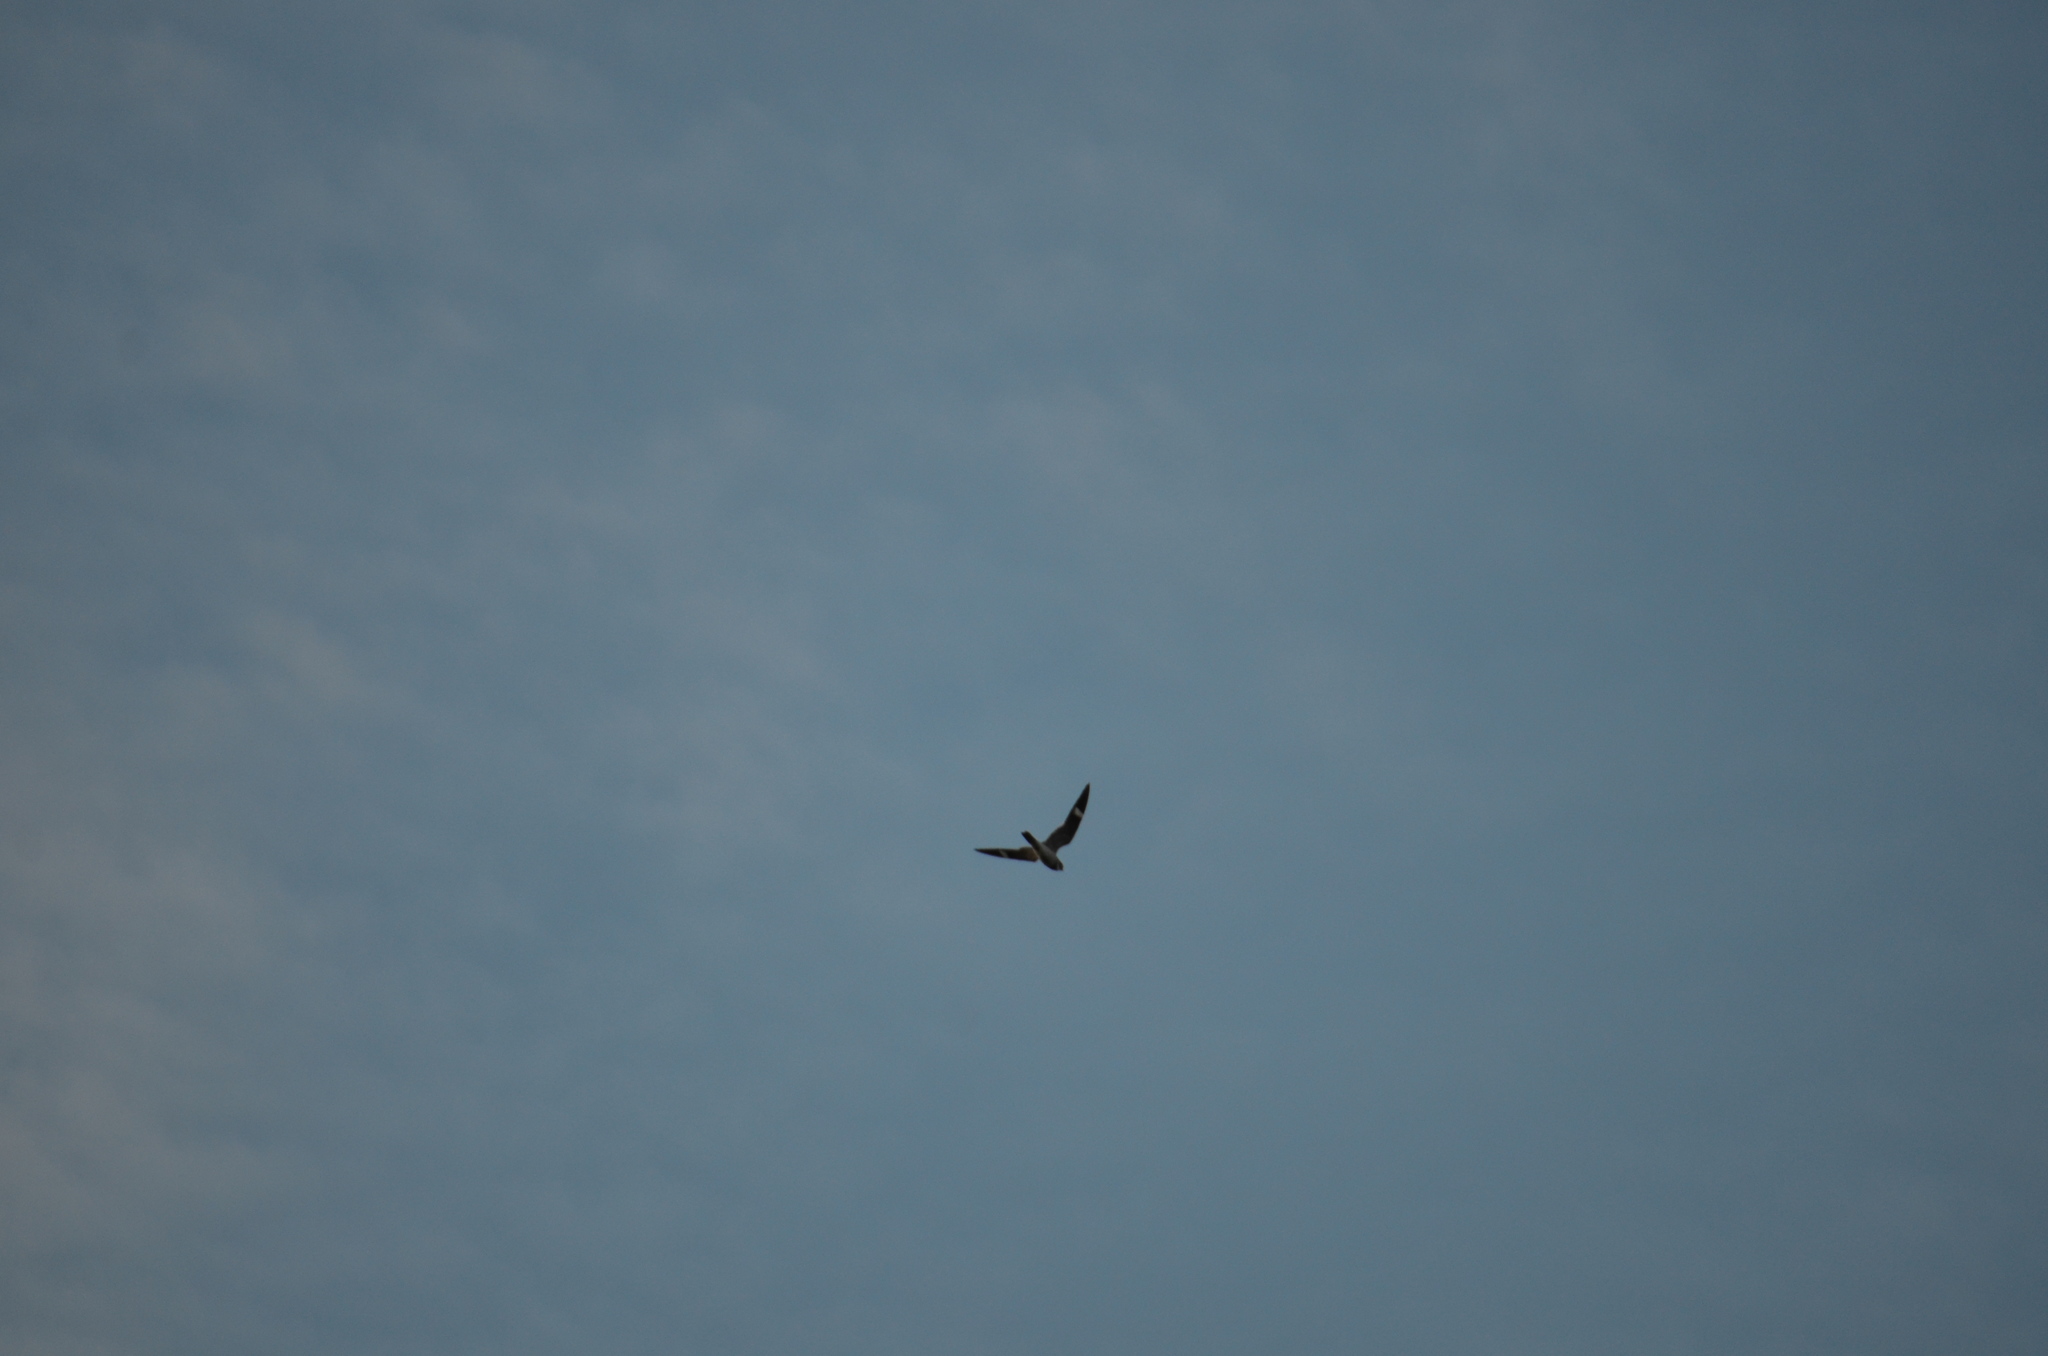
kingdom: Animalia
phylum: Chordata
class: Aves
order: Caprimulgiformes
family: Caprimulgidae
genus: Chordeiles
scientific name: Chordeiles minor
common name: Common nighthawk
